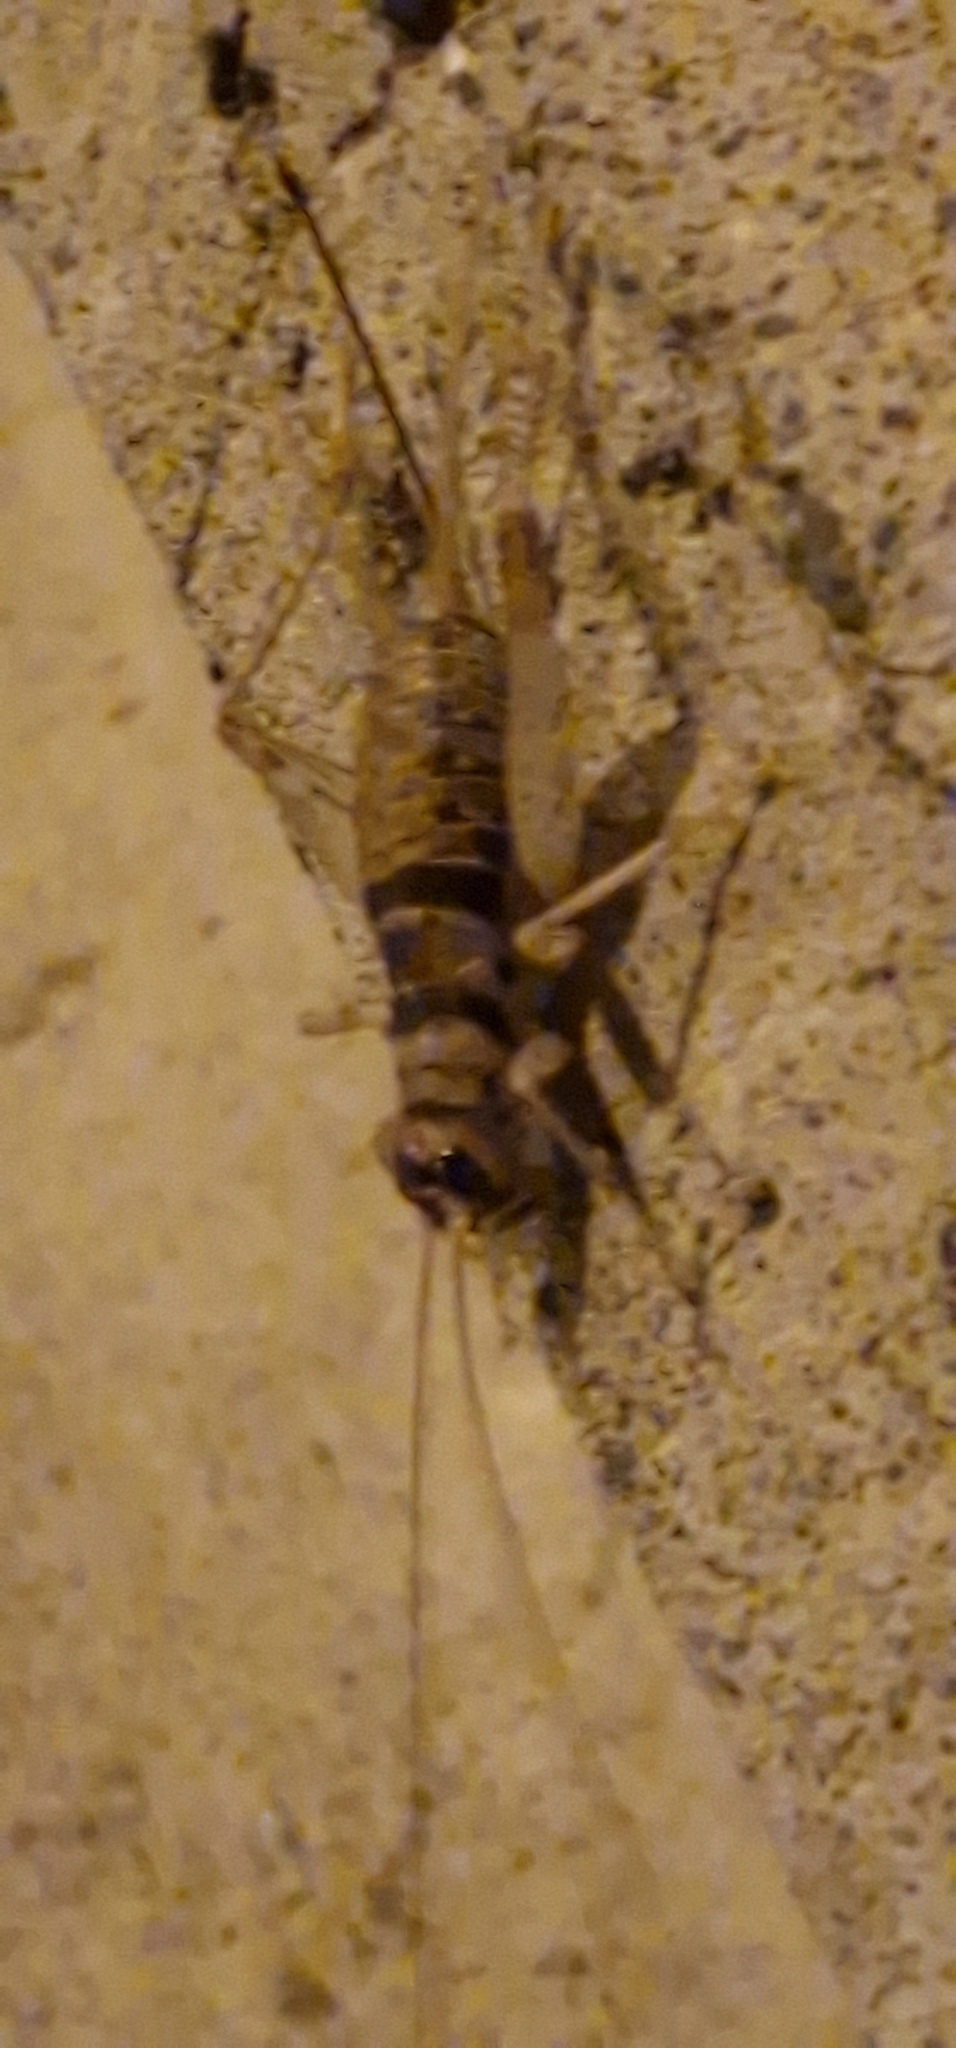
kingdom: Animalia
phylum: Arthropoda
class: Insecta
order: Orthoptera
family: Gryllidae
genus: Gryllodes
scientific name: Gryllodes sigillatus
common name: Tropical house cricket
